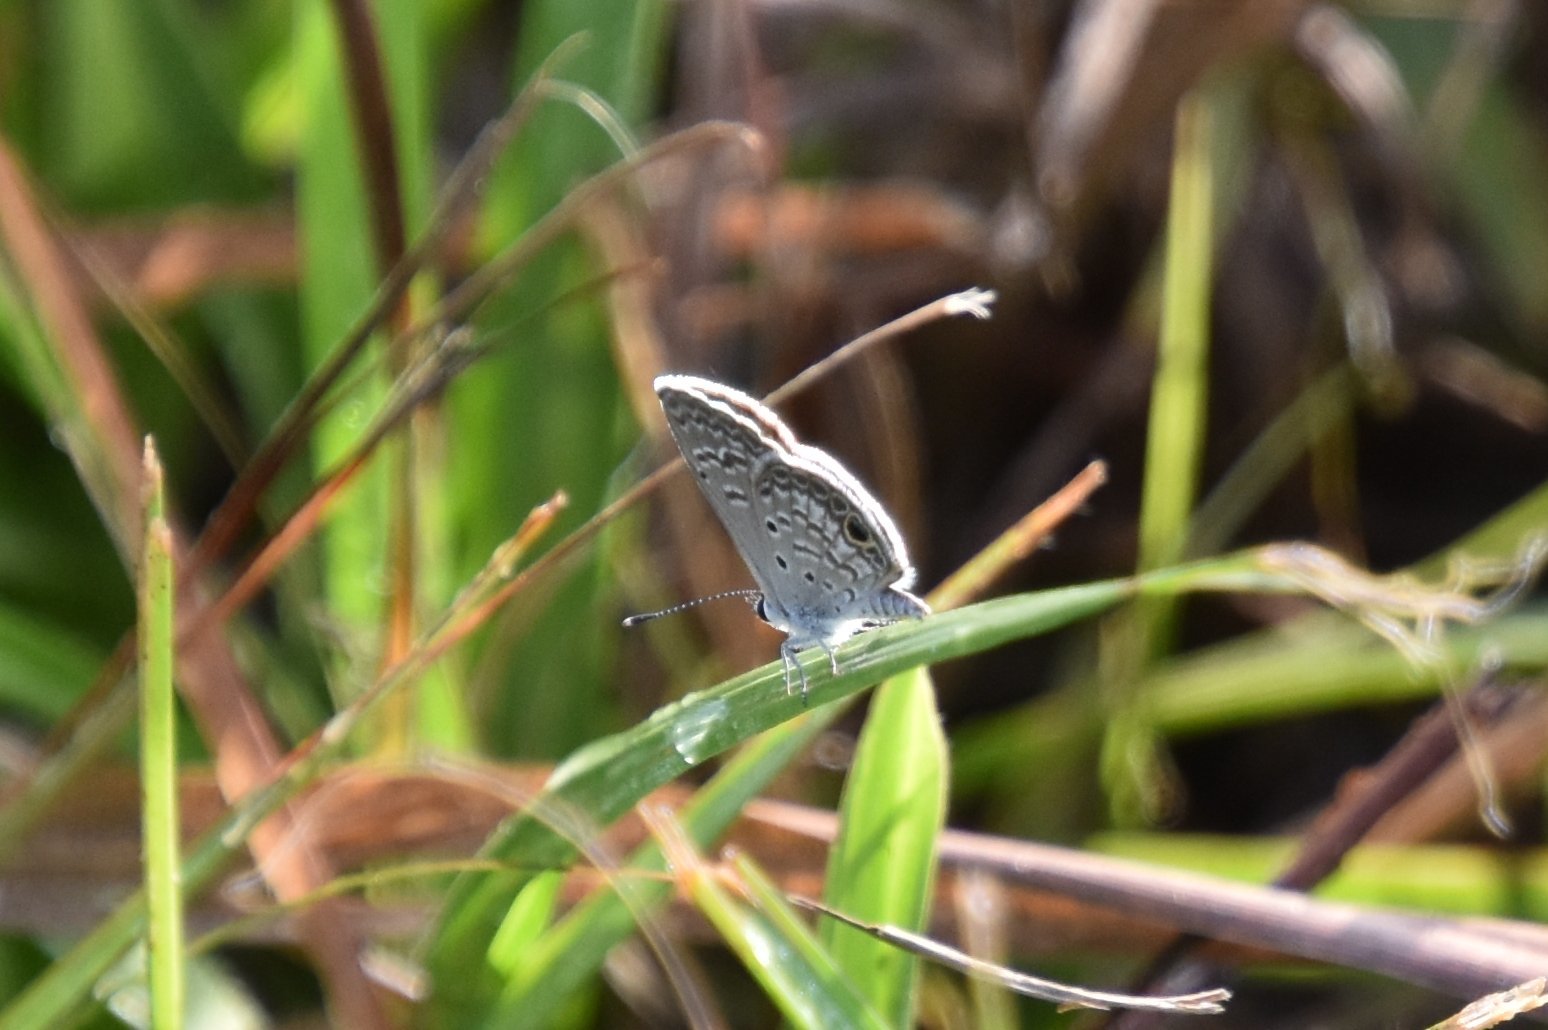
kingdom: Animalia
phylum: Arthropoda
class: Insecta
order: Lepidoptera
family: Lycaenidae
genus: Hemiargus
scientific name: Hemiargus ceraunus
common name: Ceraunus blue
